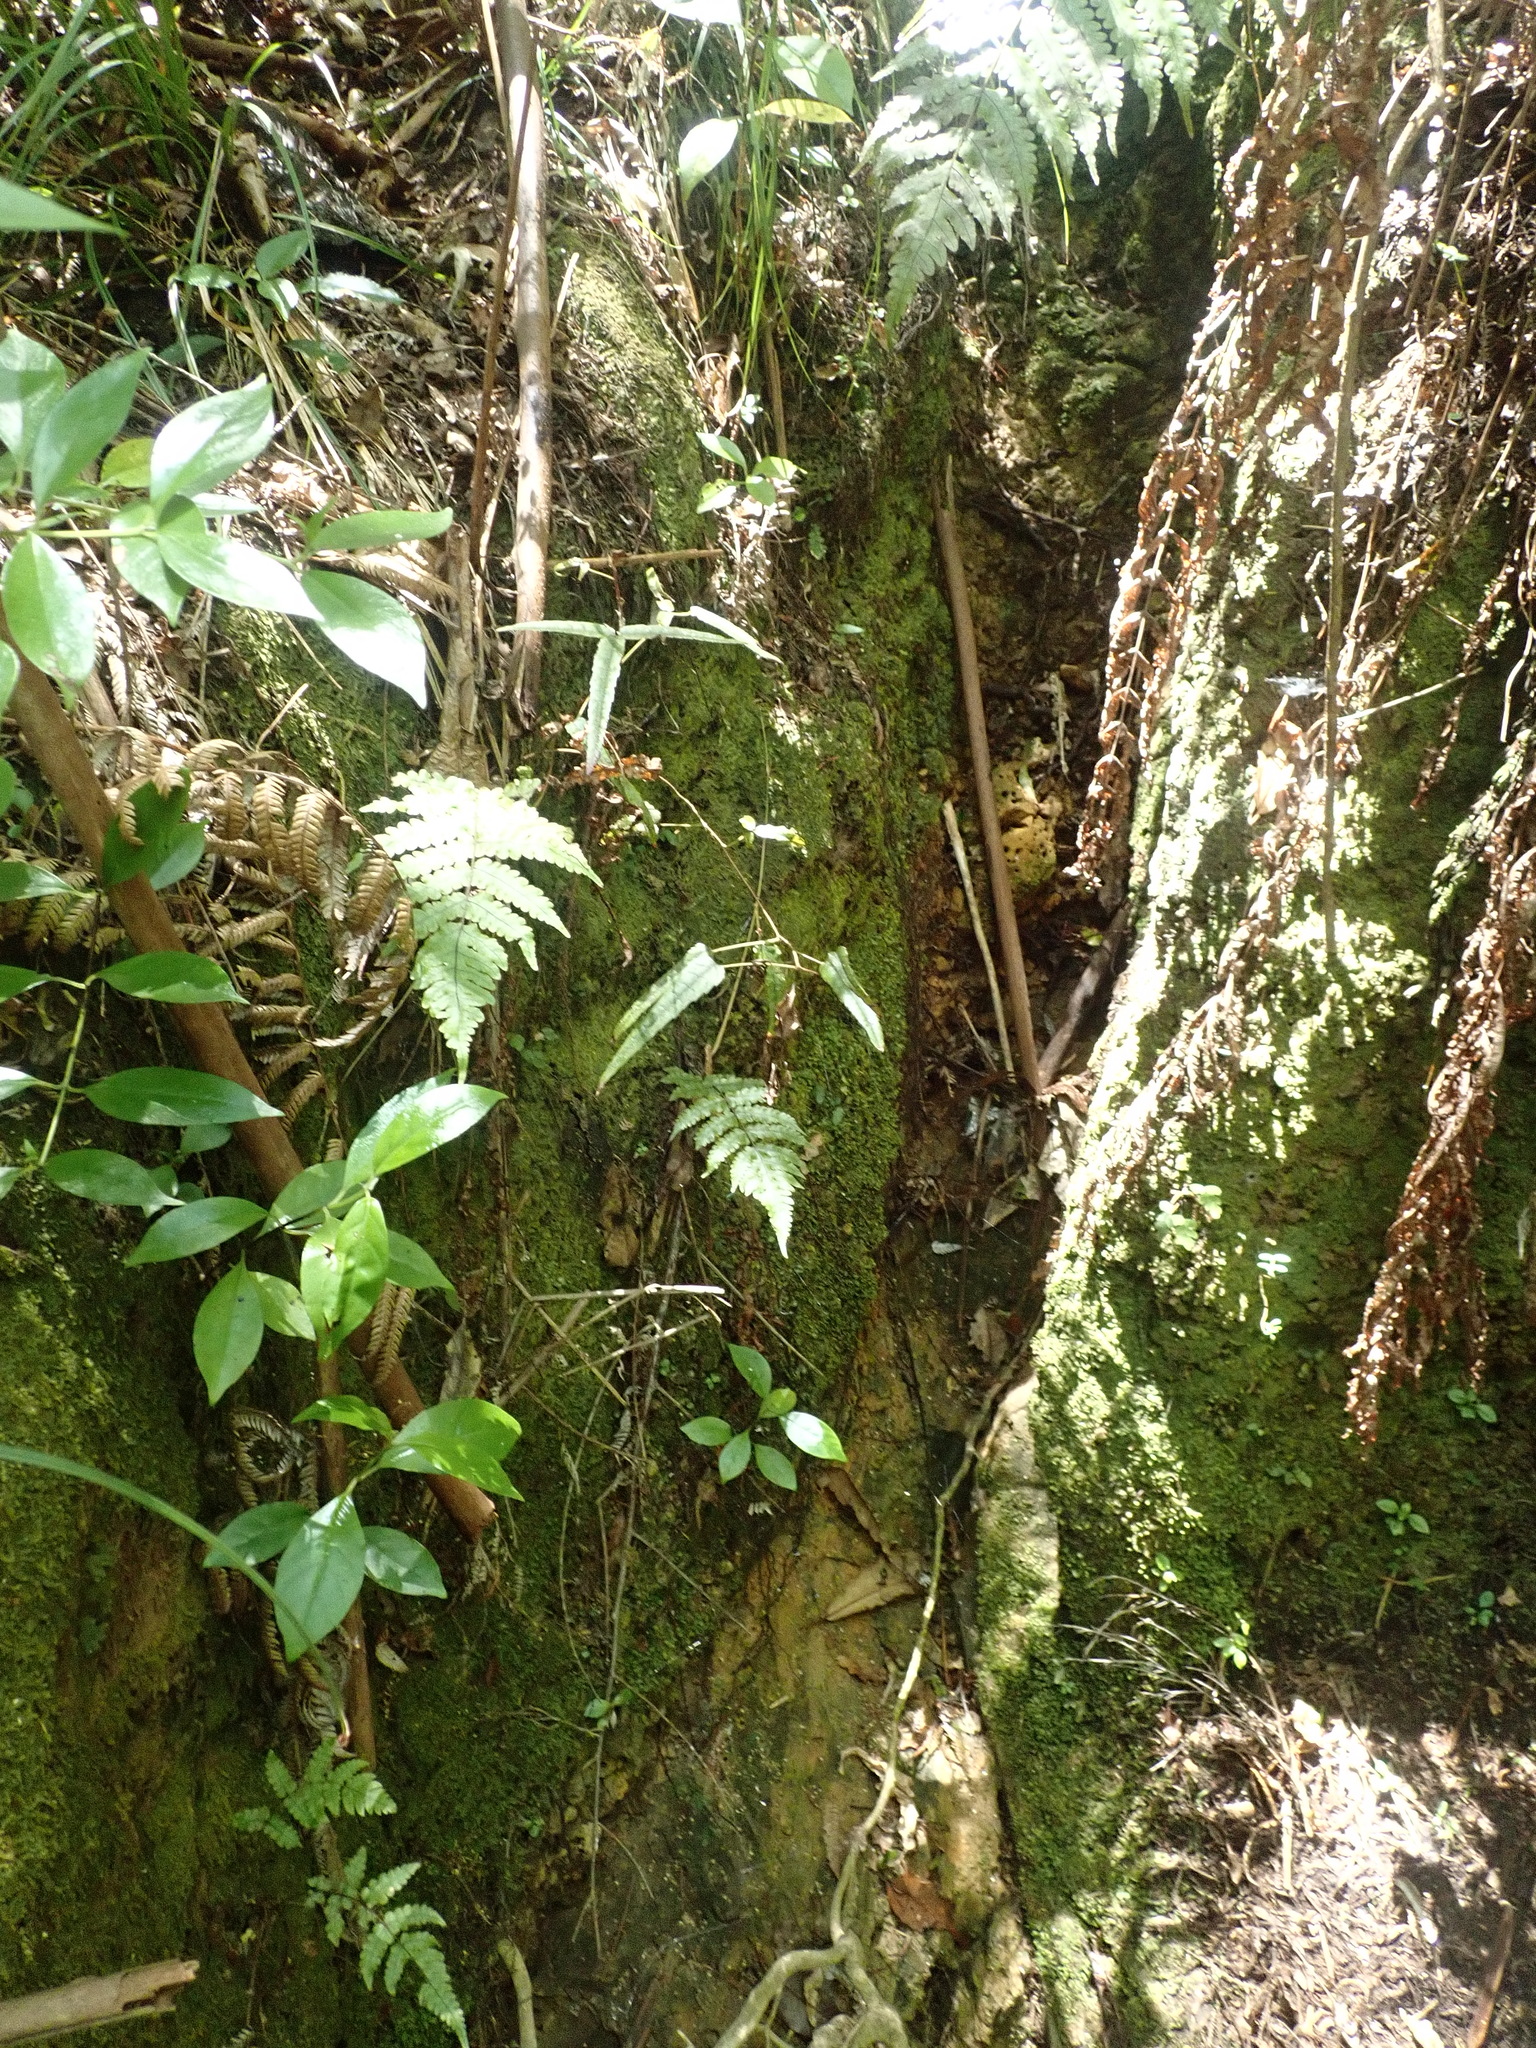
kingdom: Plantae
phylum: Tracheophyta
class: Magnoliopsida
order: Rosales
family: Rosaceae
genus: Rubus
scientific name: Rubus cissoides
